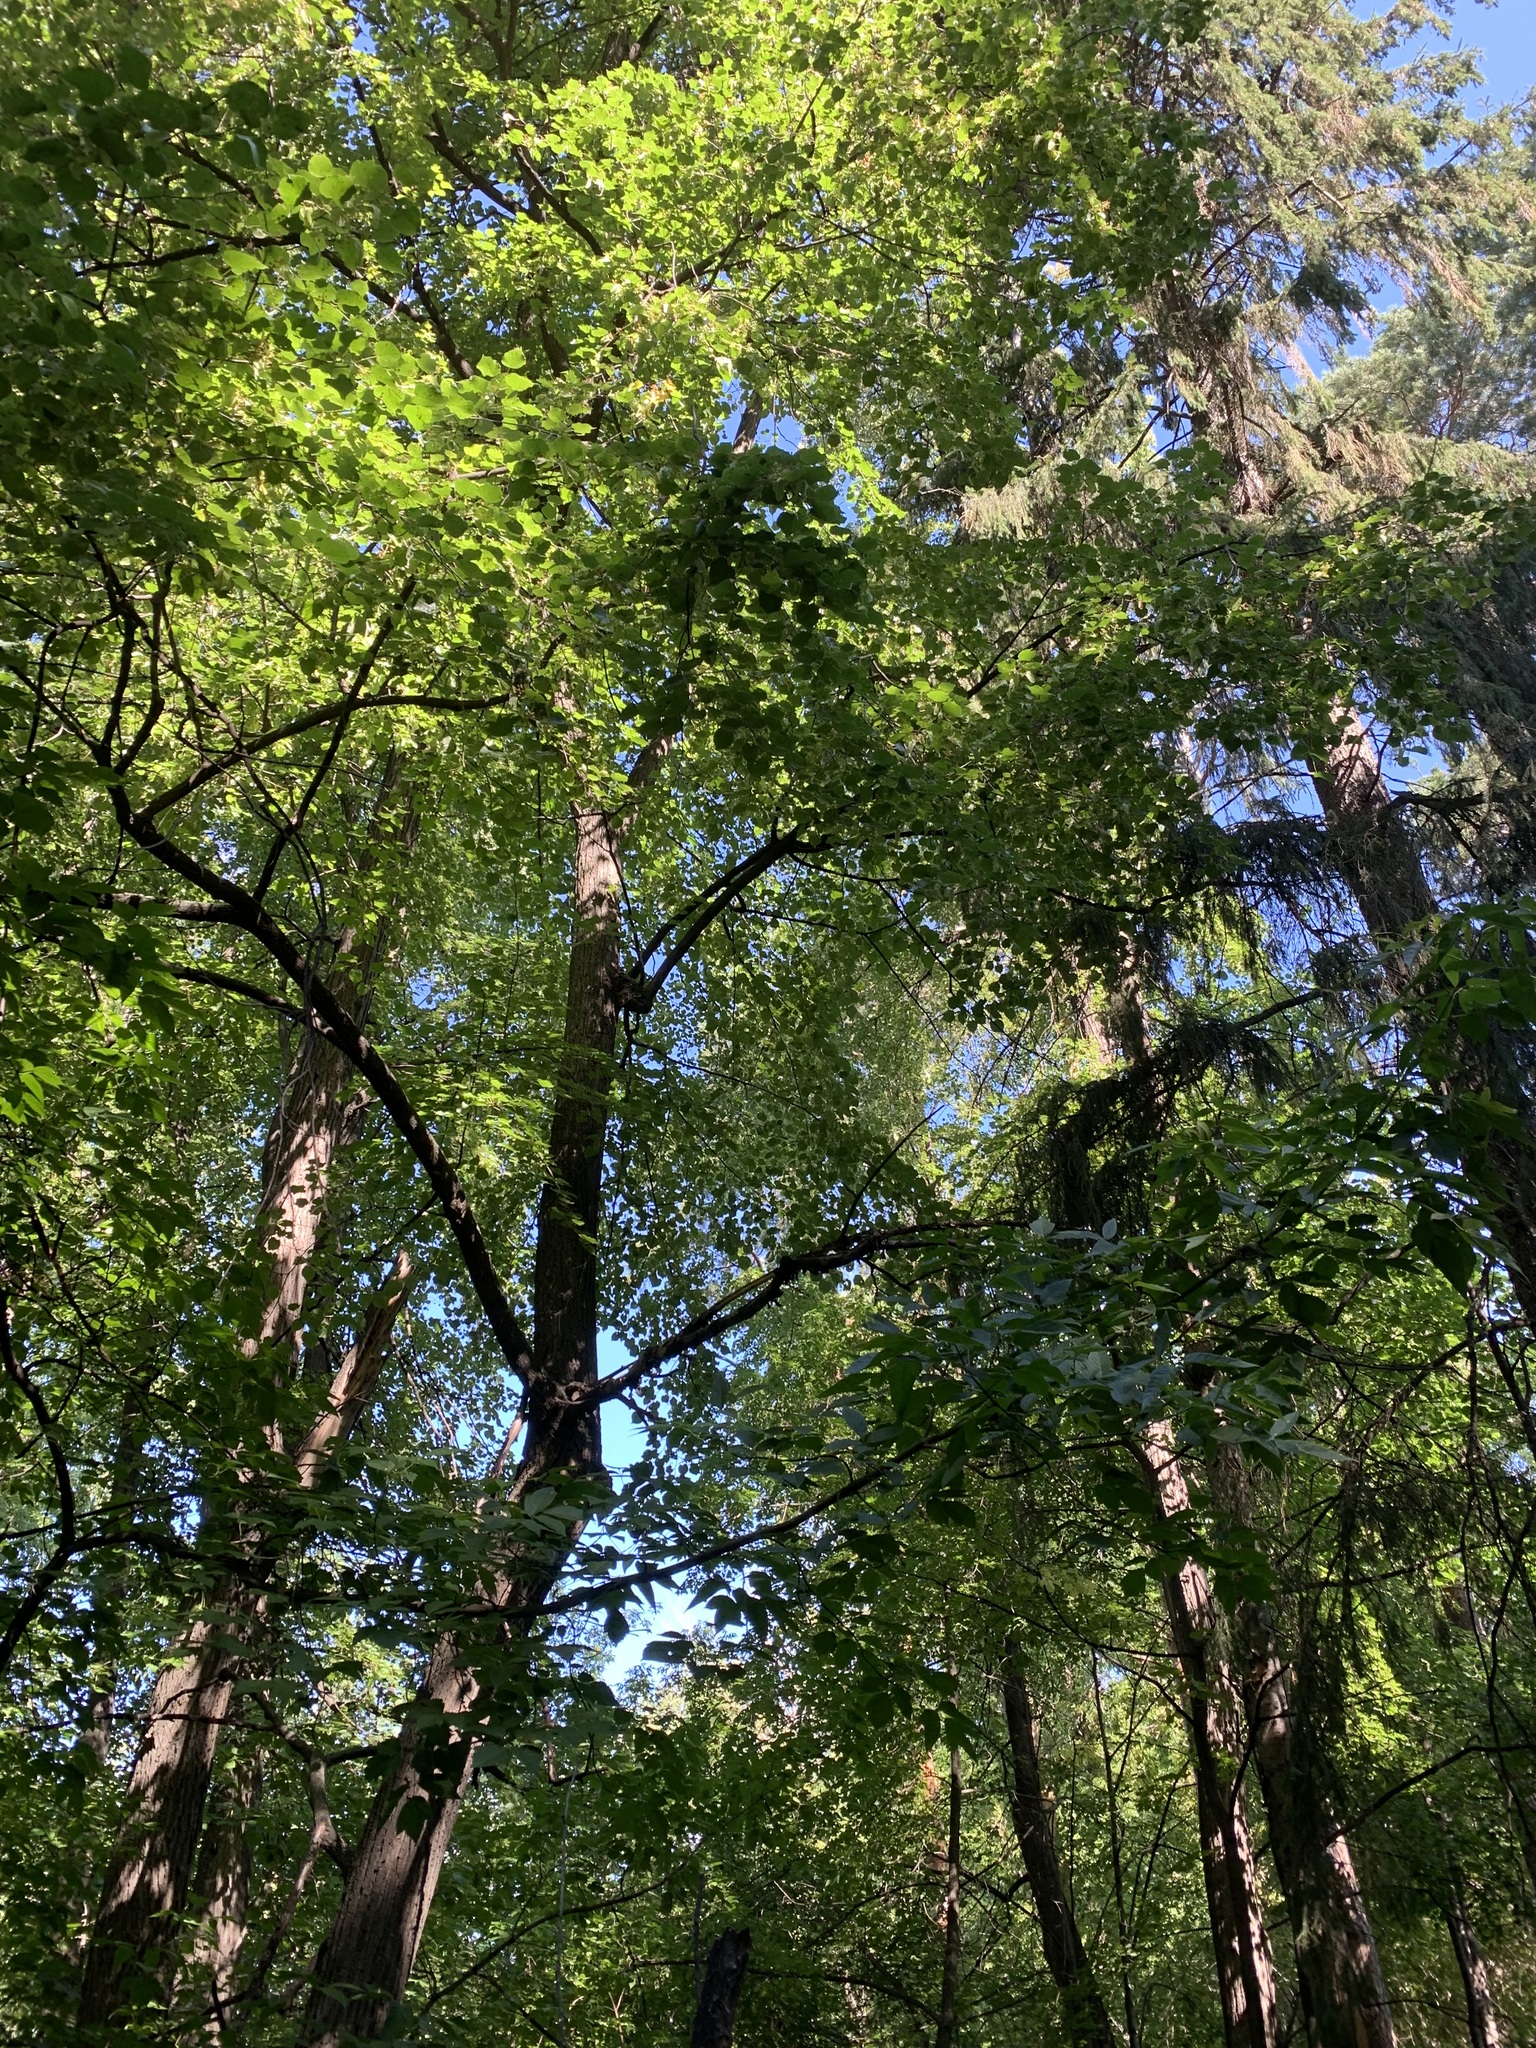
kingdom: Plantae
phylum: Tracheophyta
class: Magnoliopsida
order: Malvales
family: Malvaceae
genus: Tilia
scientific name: Tilia cordata
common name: Small-leaved lime
